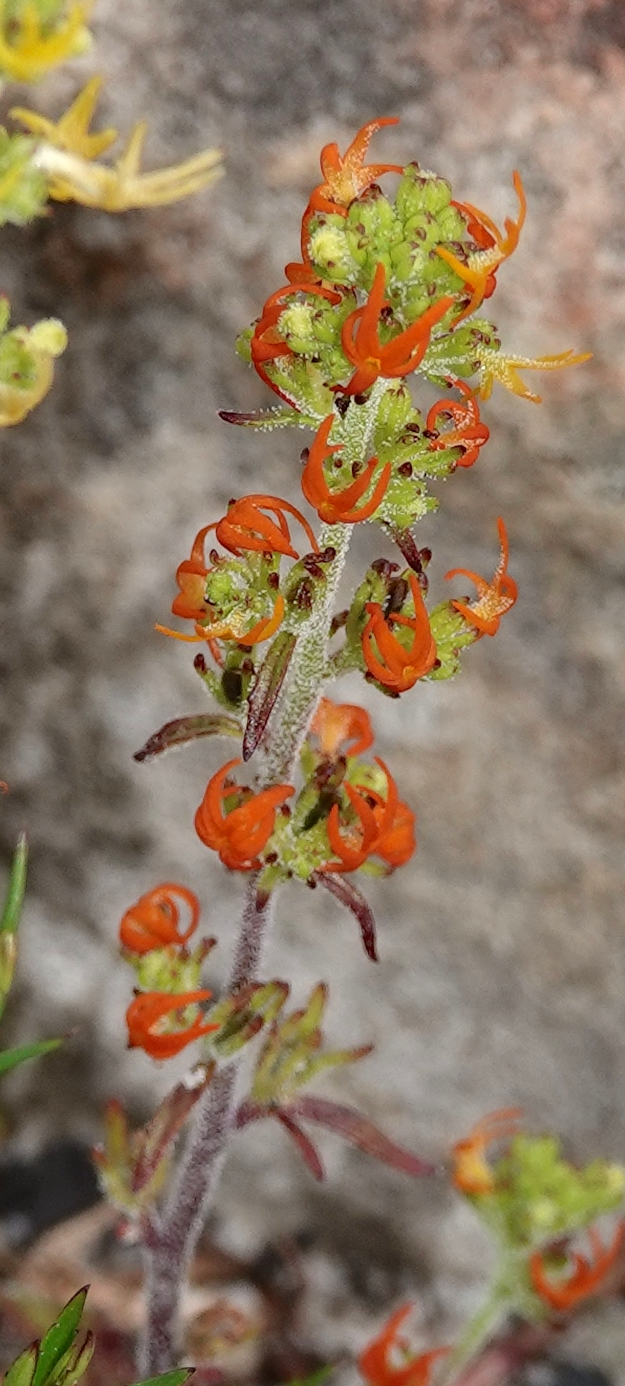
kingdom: Plantae
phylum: Tracheophyta
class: Magnoliopsida
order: Lamiales
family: Scrophulariaceae
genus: Manulea
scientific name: Manulea cheiranthus
